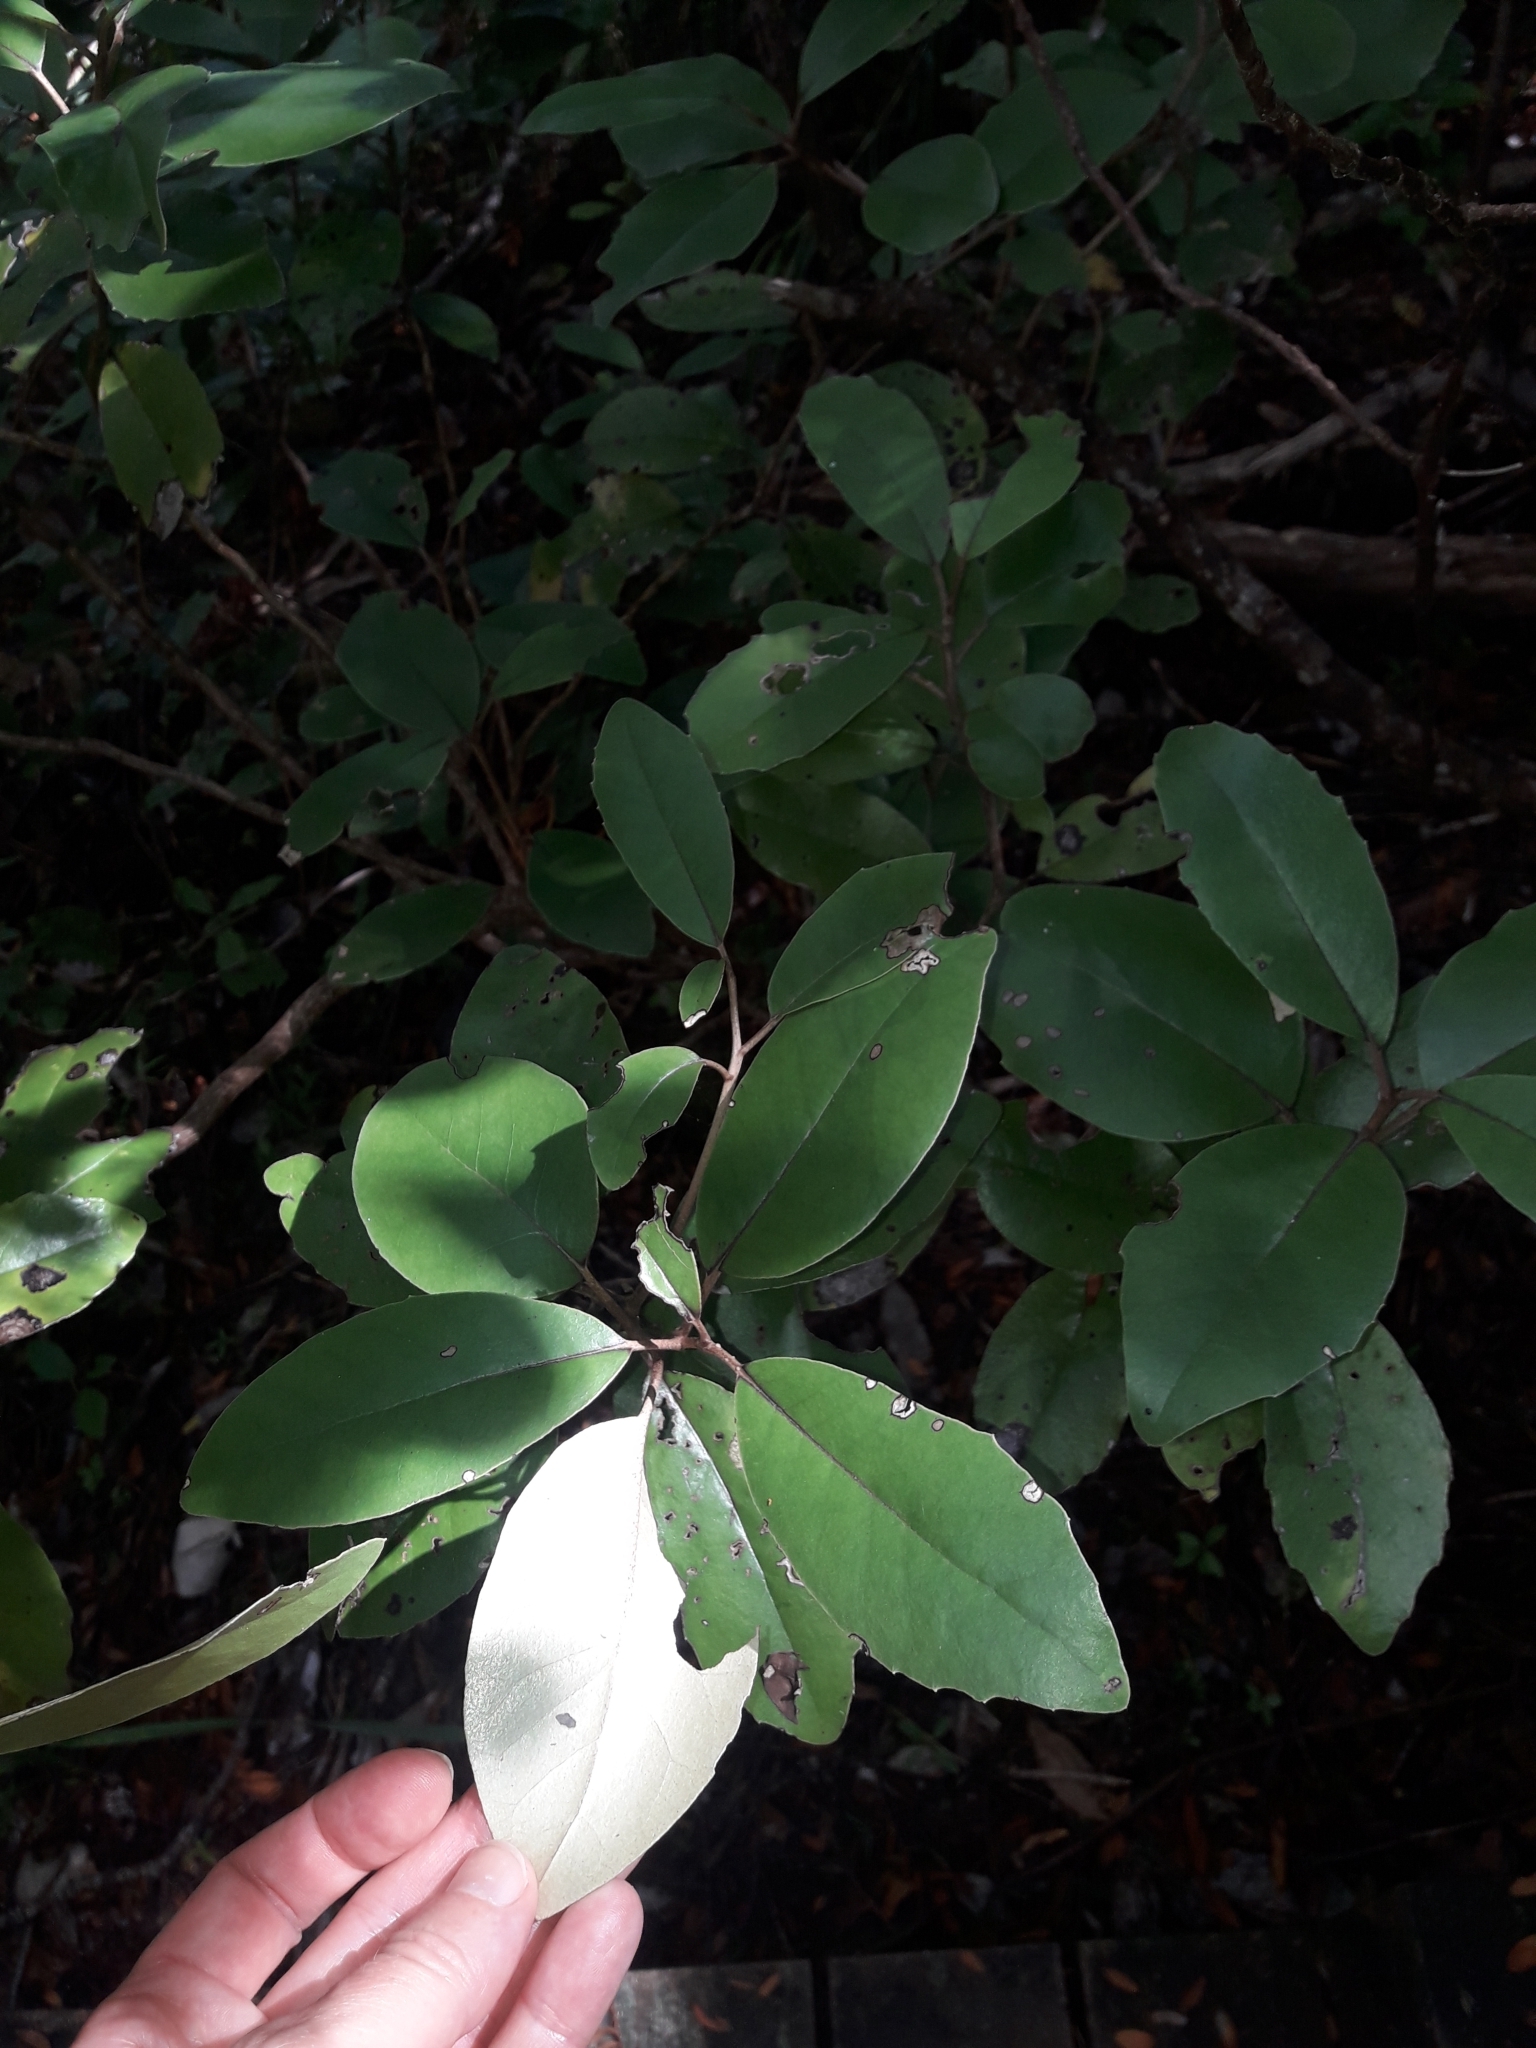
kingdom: Plantae
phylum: Tracheophyta
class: Magnoliopsida
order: Asterales
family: Asteraceae
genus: Olearia
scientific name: Olearia furfuracea
